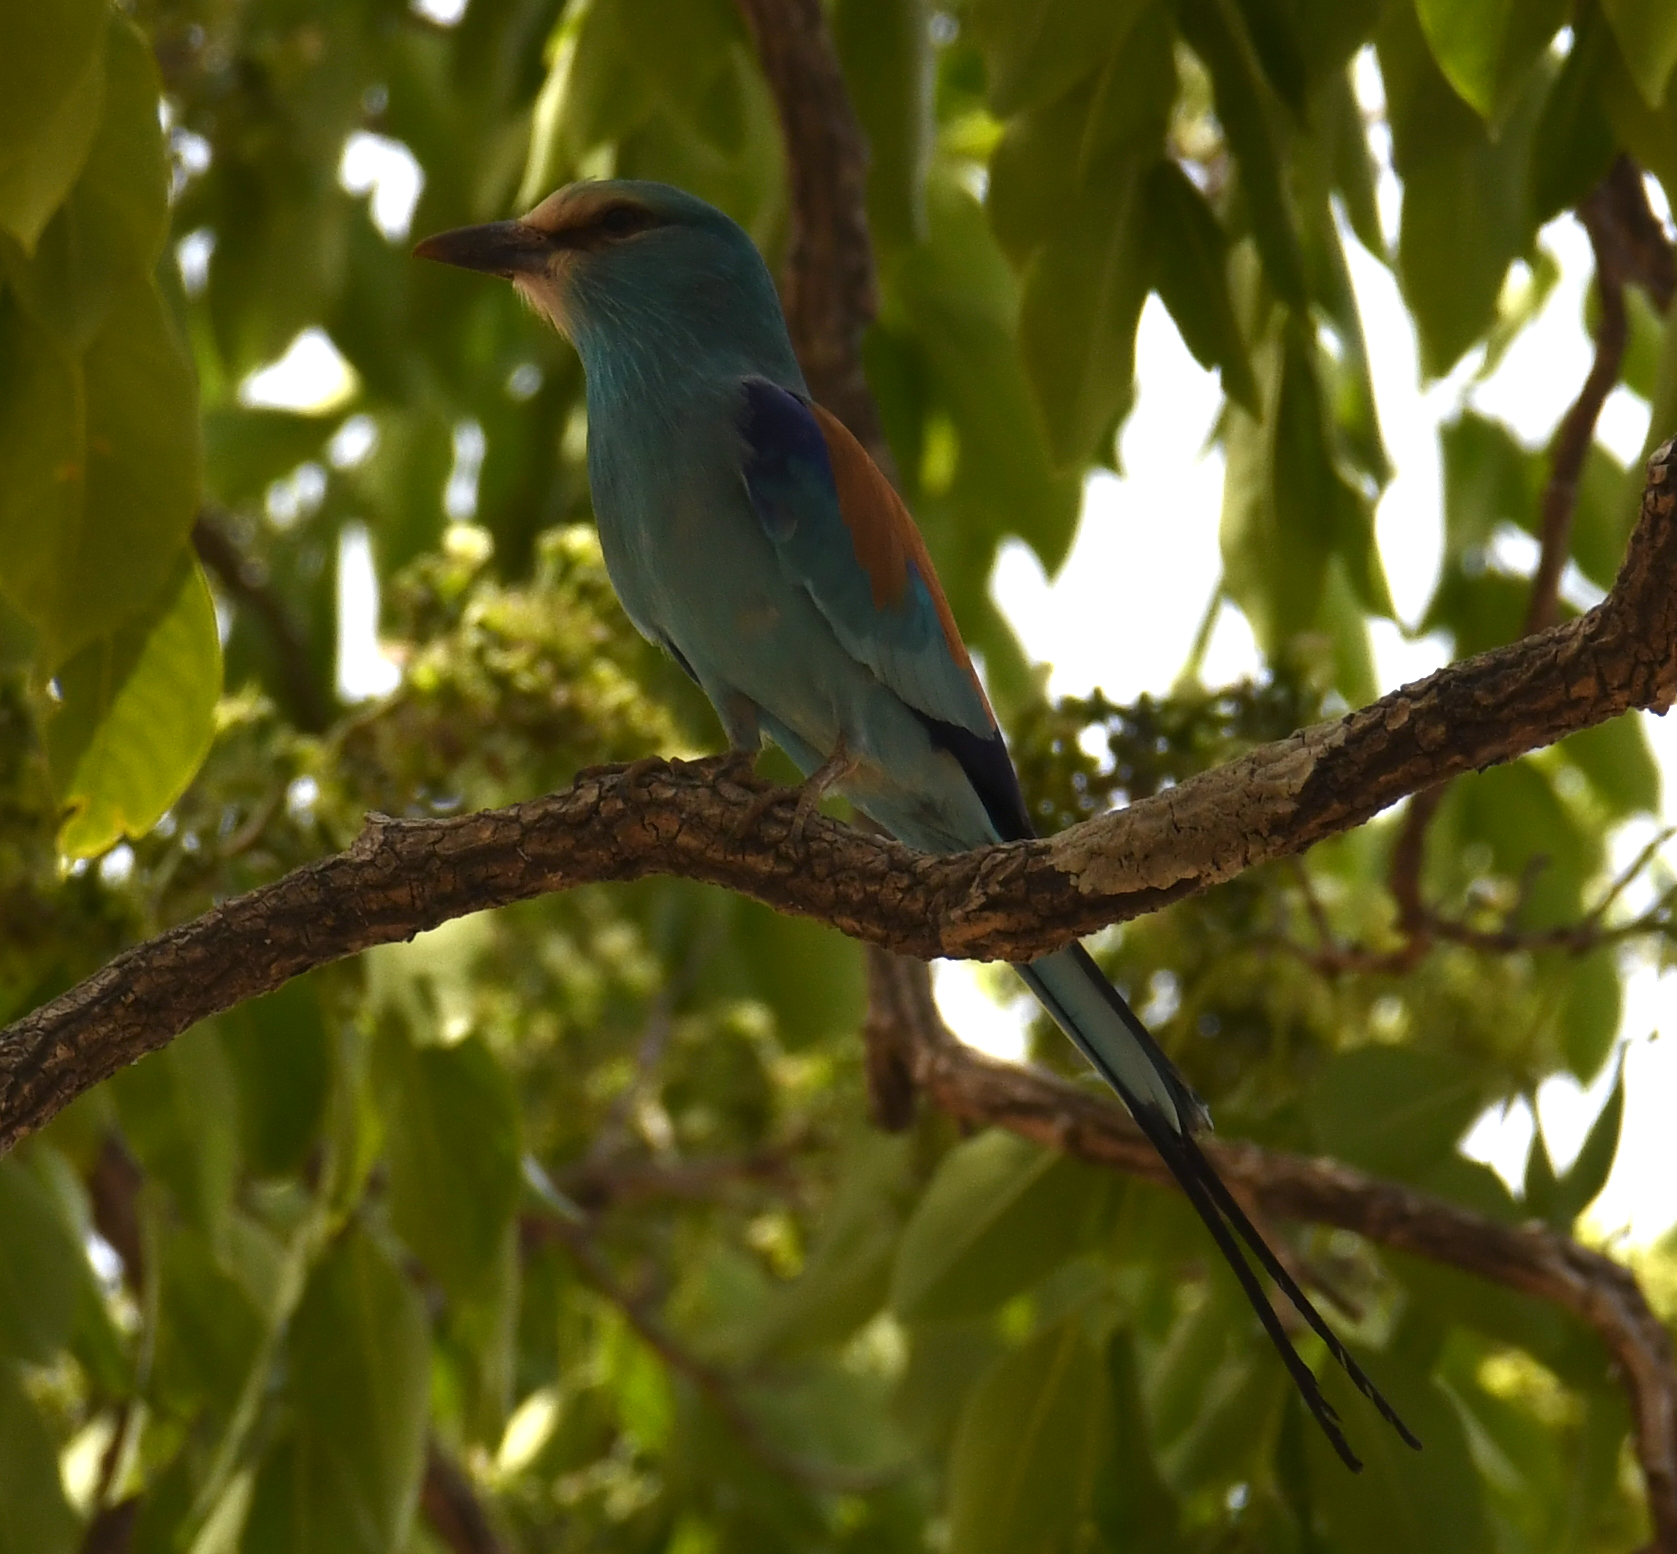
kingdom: Animalia
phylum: Chordata
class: Aves
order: Coraciiformes
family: Coraciidae
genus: Coracias
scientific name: Coracias abyssinicus
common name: Abyssinian roller
